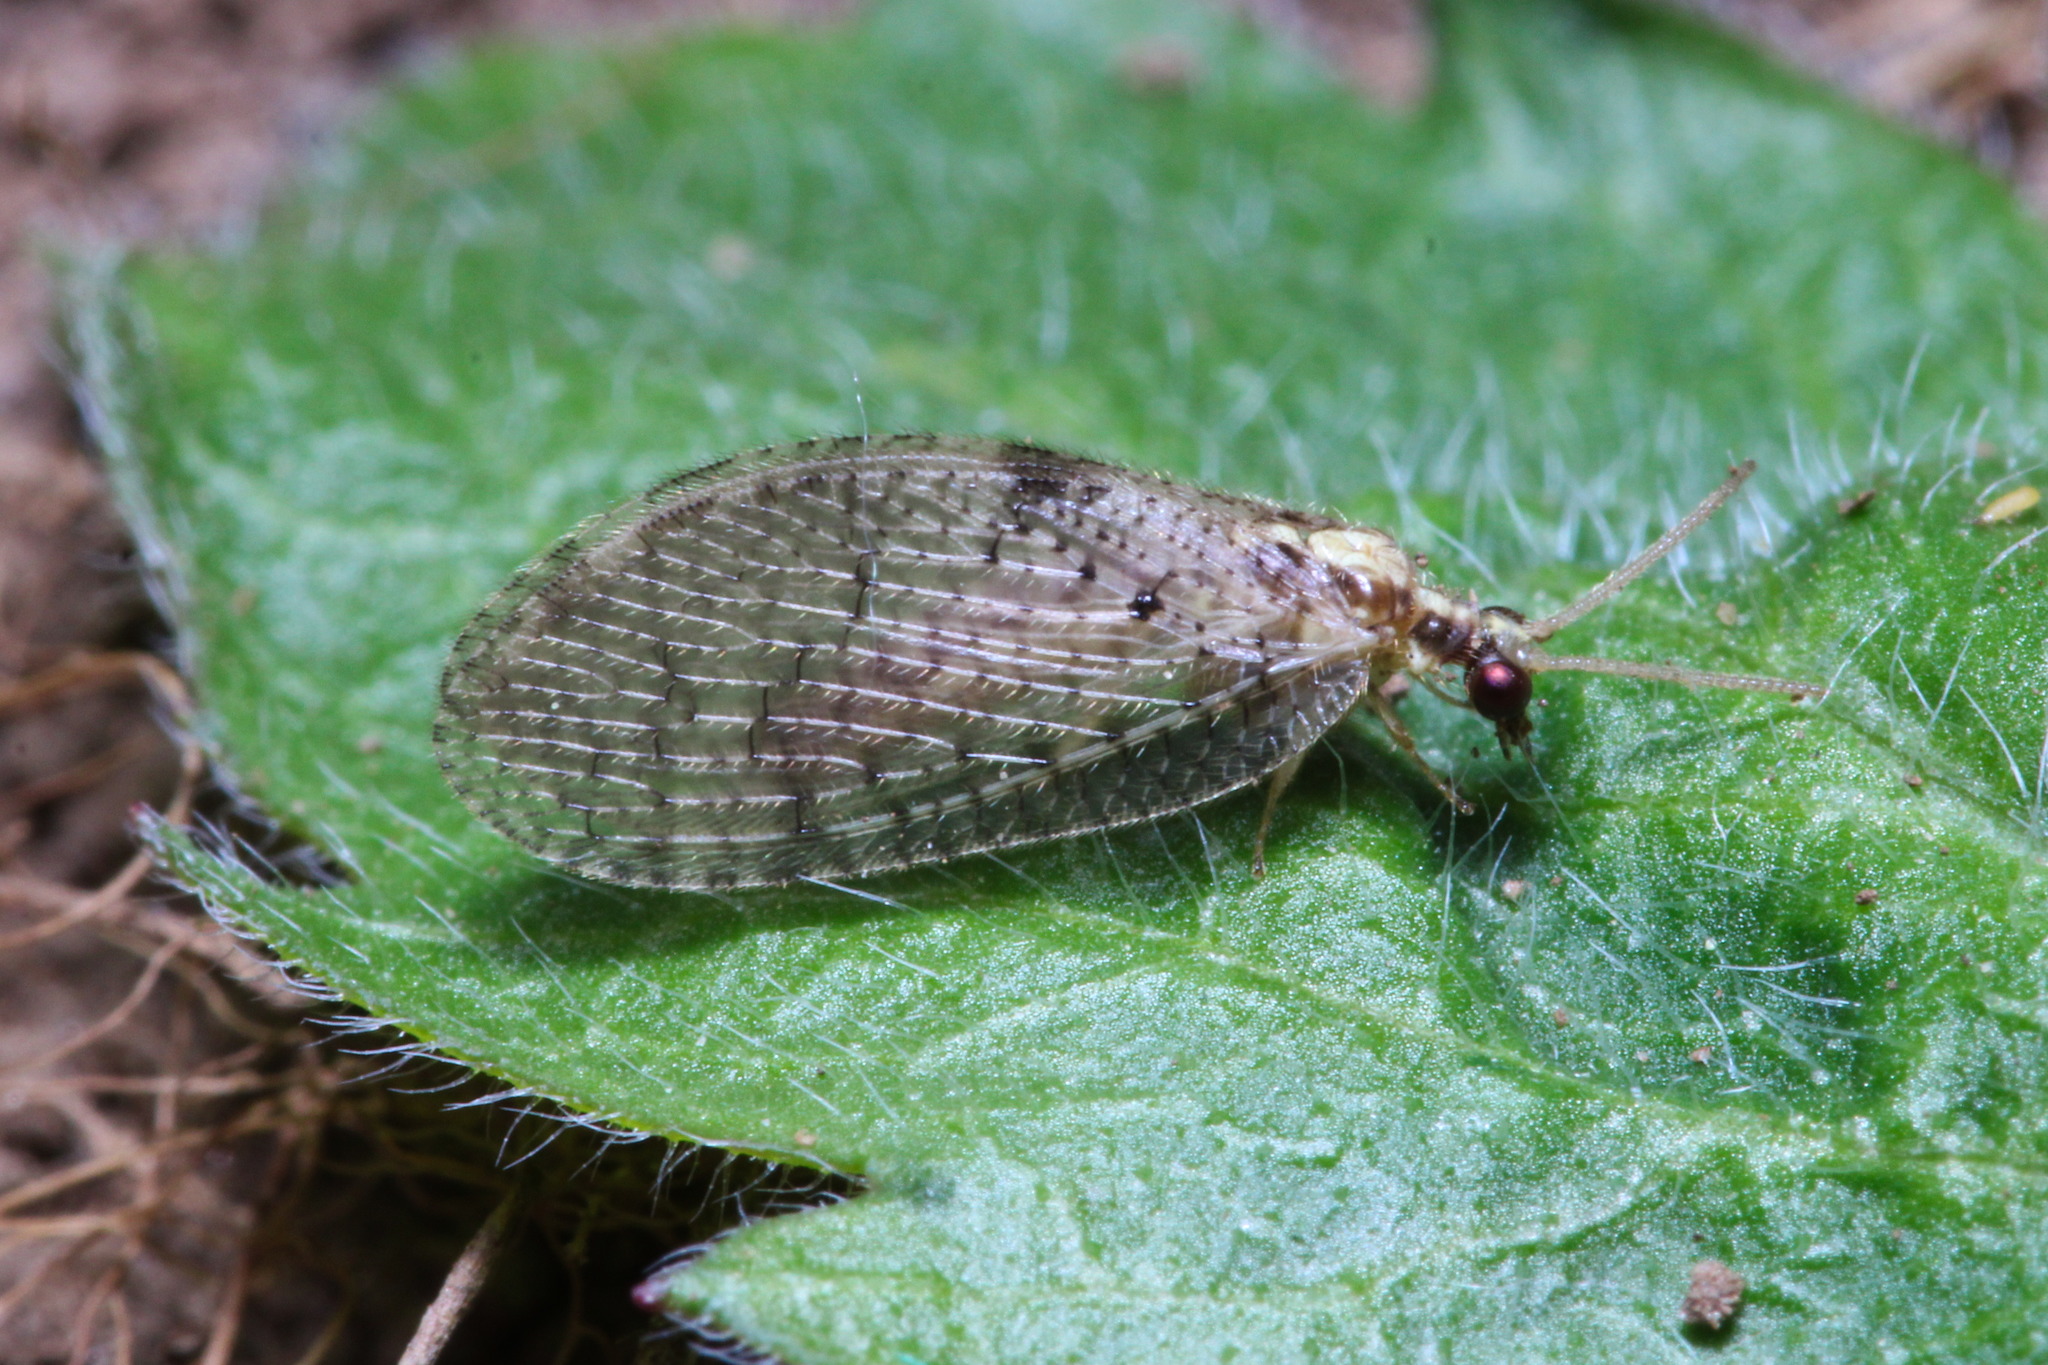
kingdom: Animalia
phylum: Arthropoda
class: Insecta
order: Neuroptera
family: Hemerobiidae
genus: Hemerobius
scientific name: Hemerobius humulinus
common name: Humulin brown lacewing
